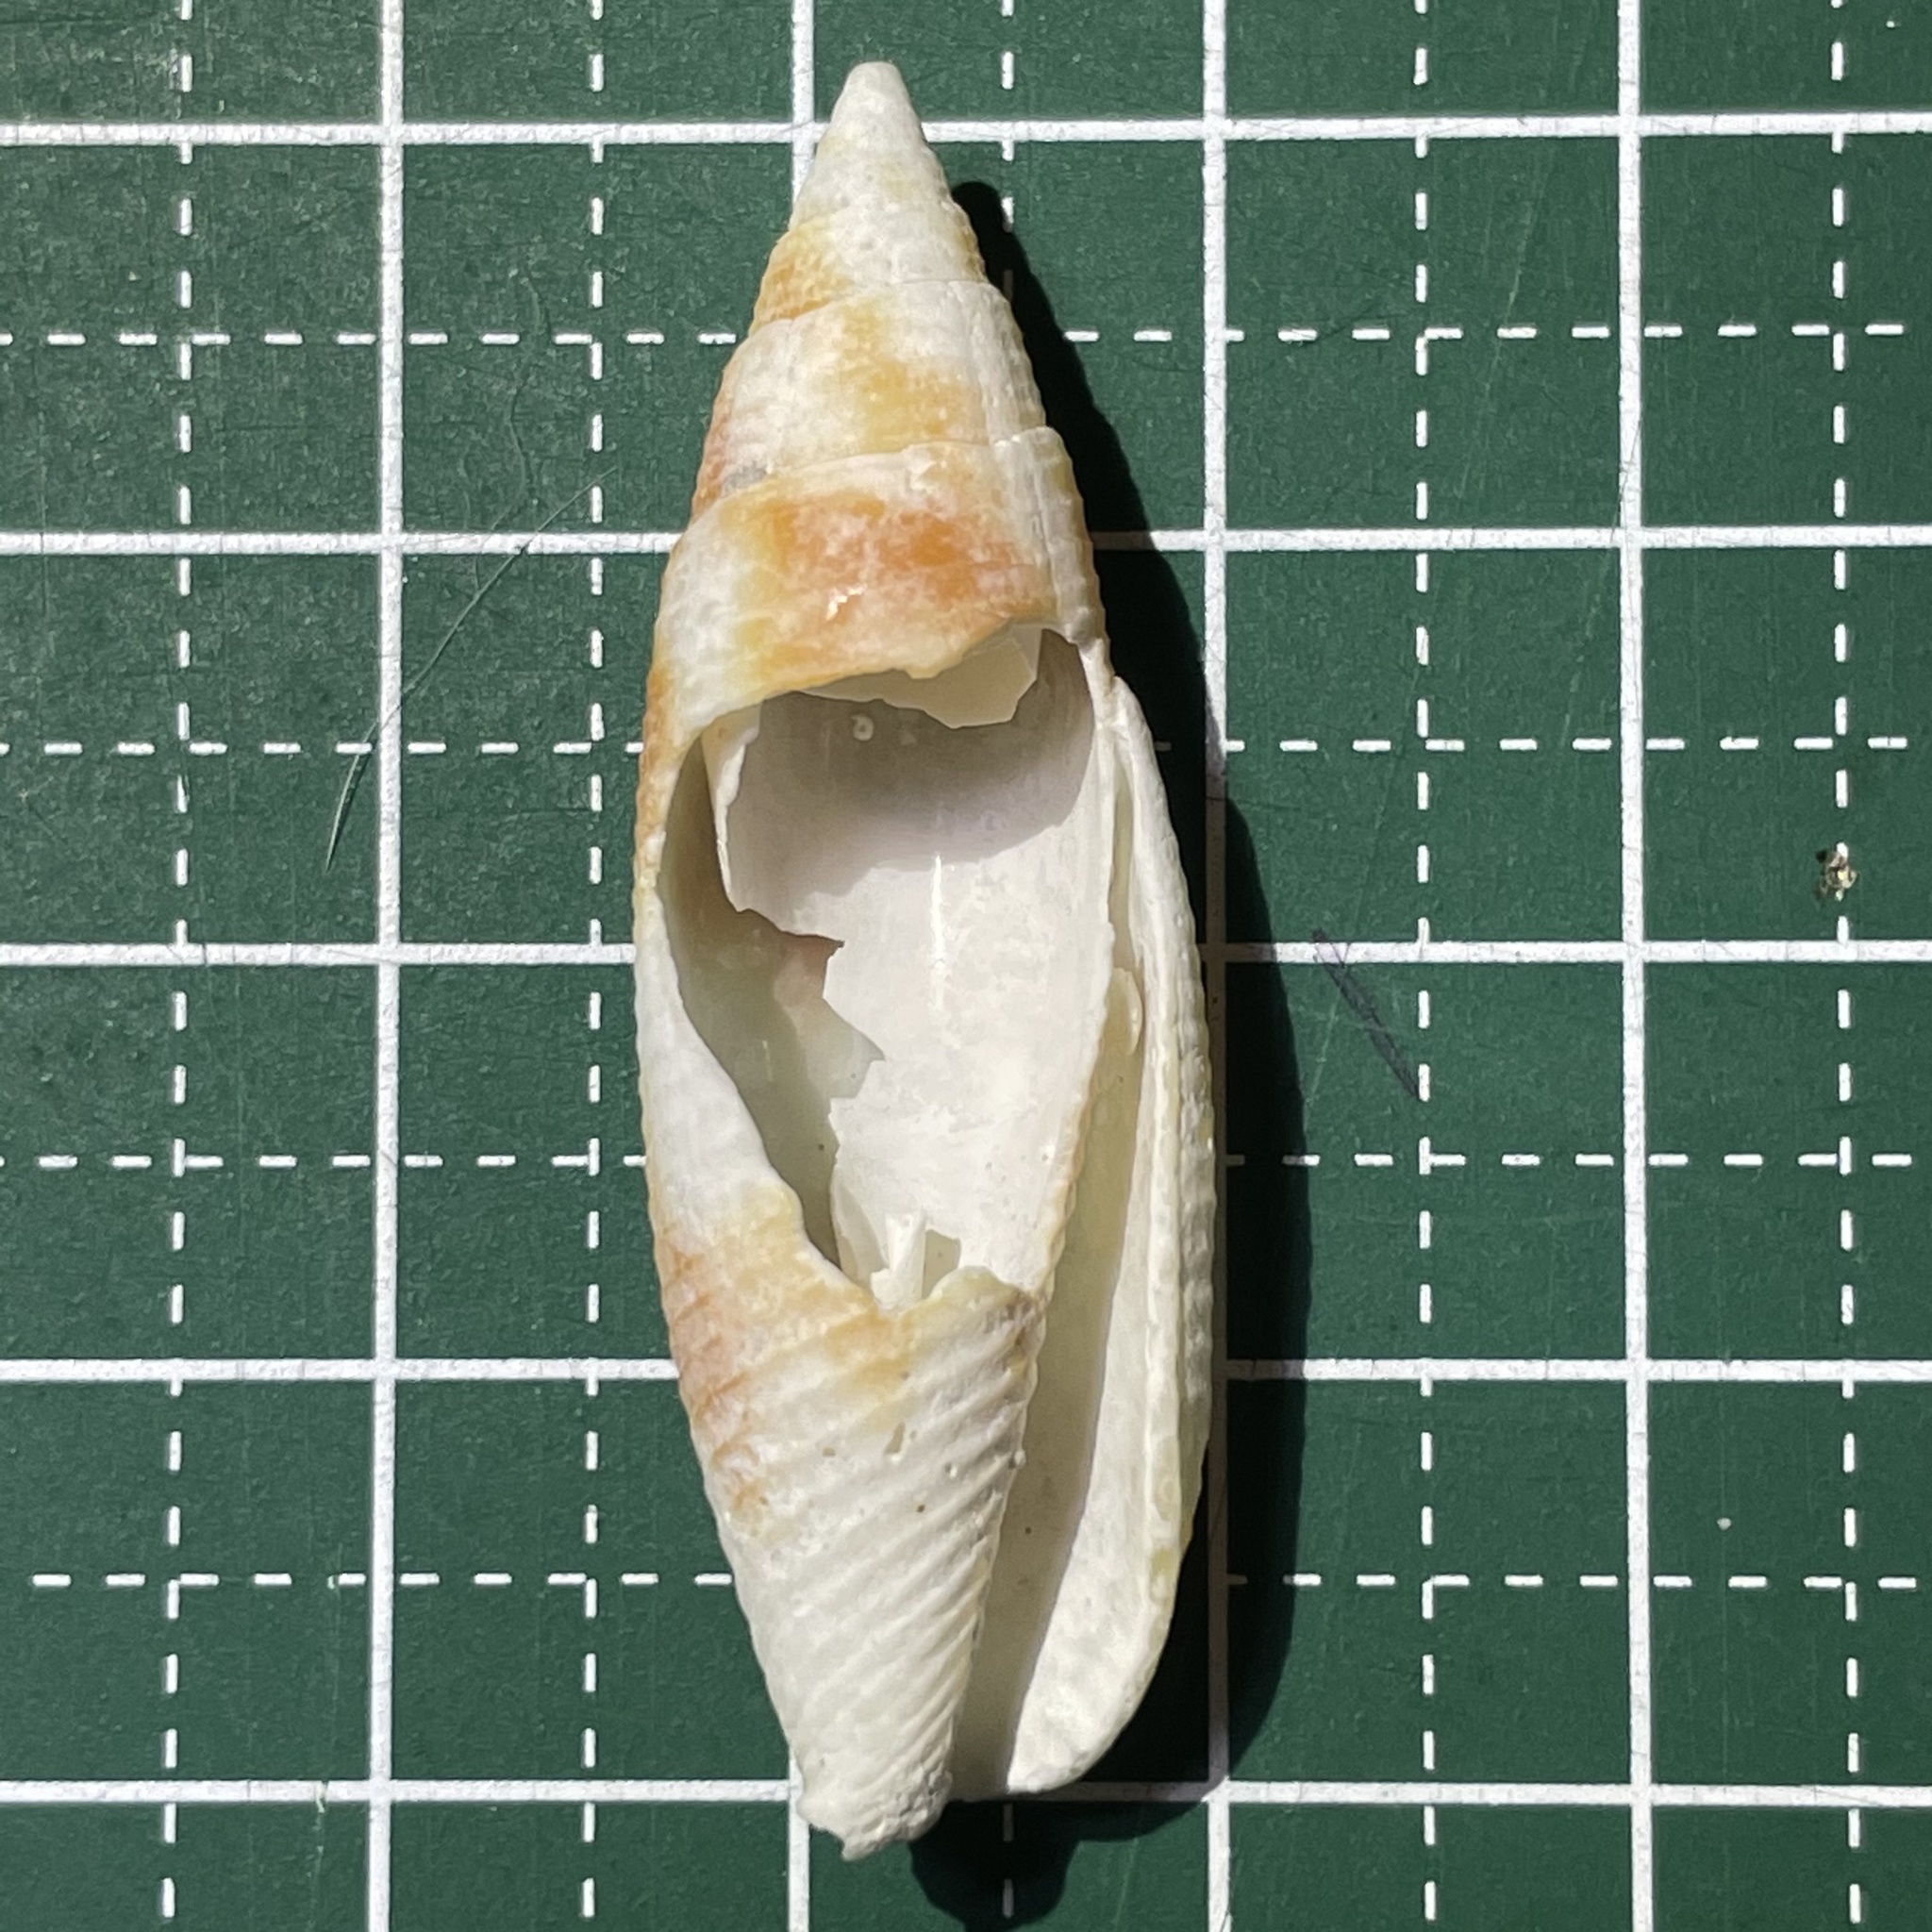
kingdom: Animalia
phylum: Mollusca
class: Gastropoda
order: Neogastropoda
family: Mitridae
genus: Nebularia
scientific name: Nebularia edentula
